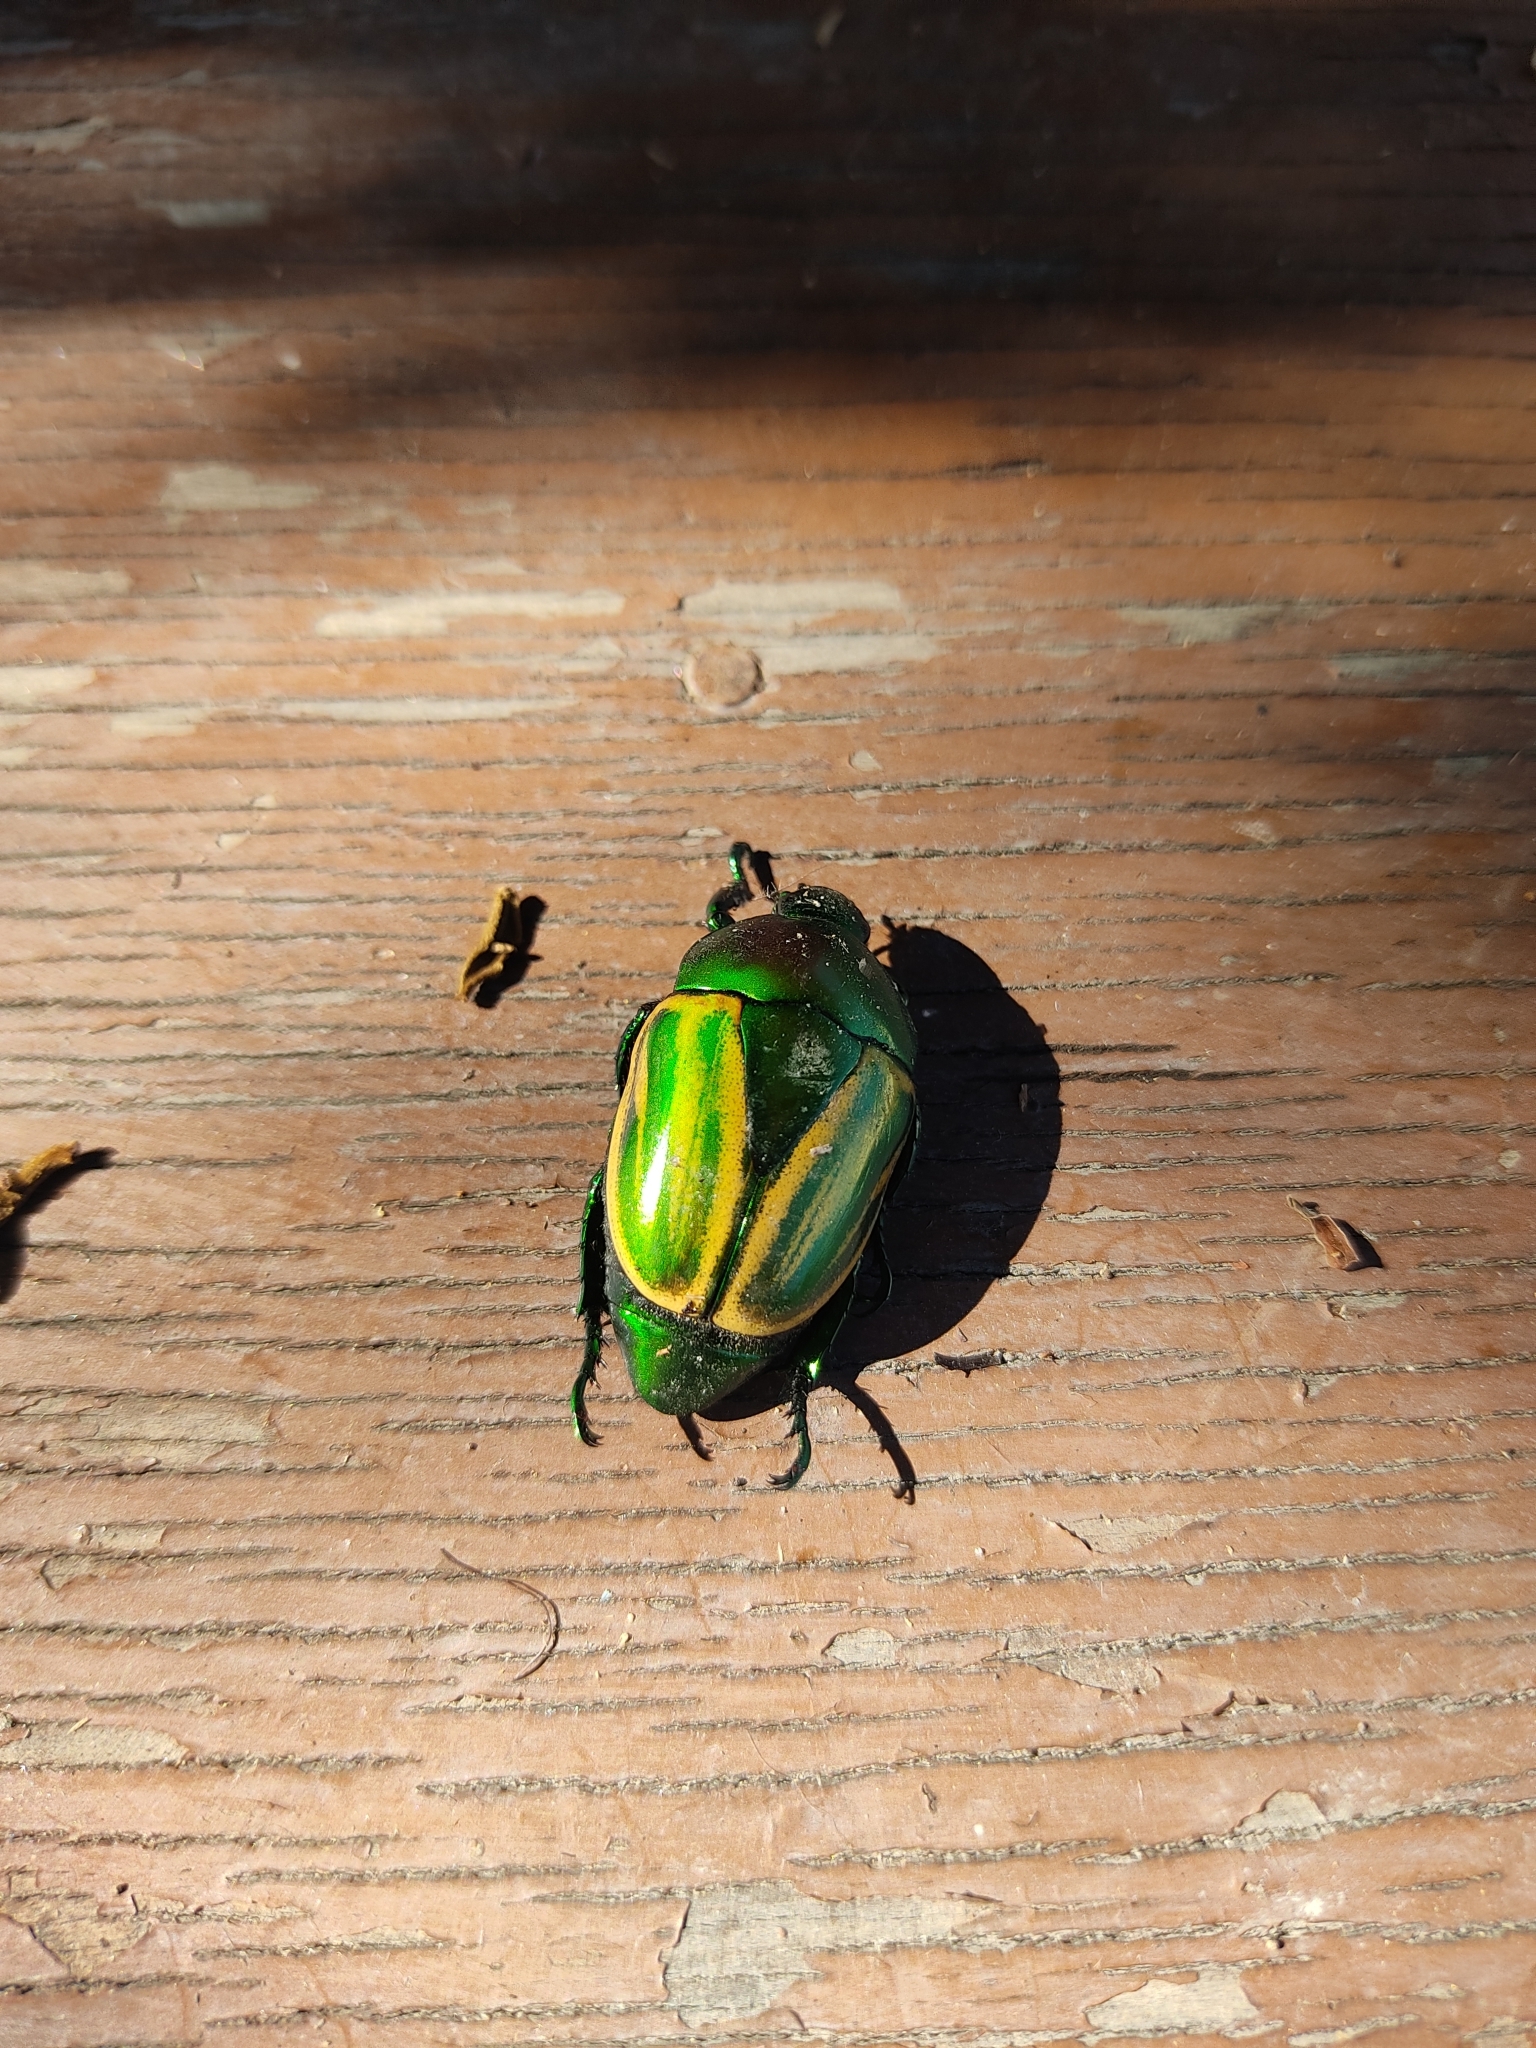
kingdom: Animalia
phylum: Arthropoda
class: Insecta
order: Coleoptera
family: Scarabaeidae
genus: Macraspis
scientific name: Macraspis festiva
